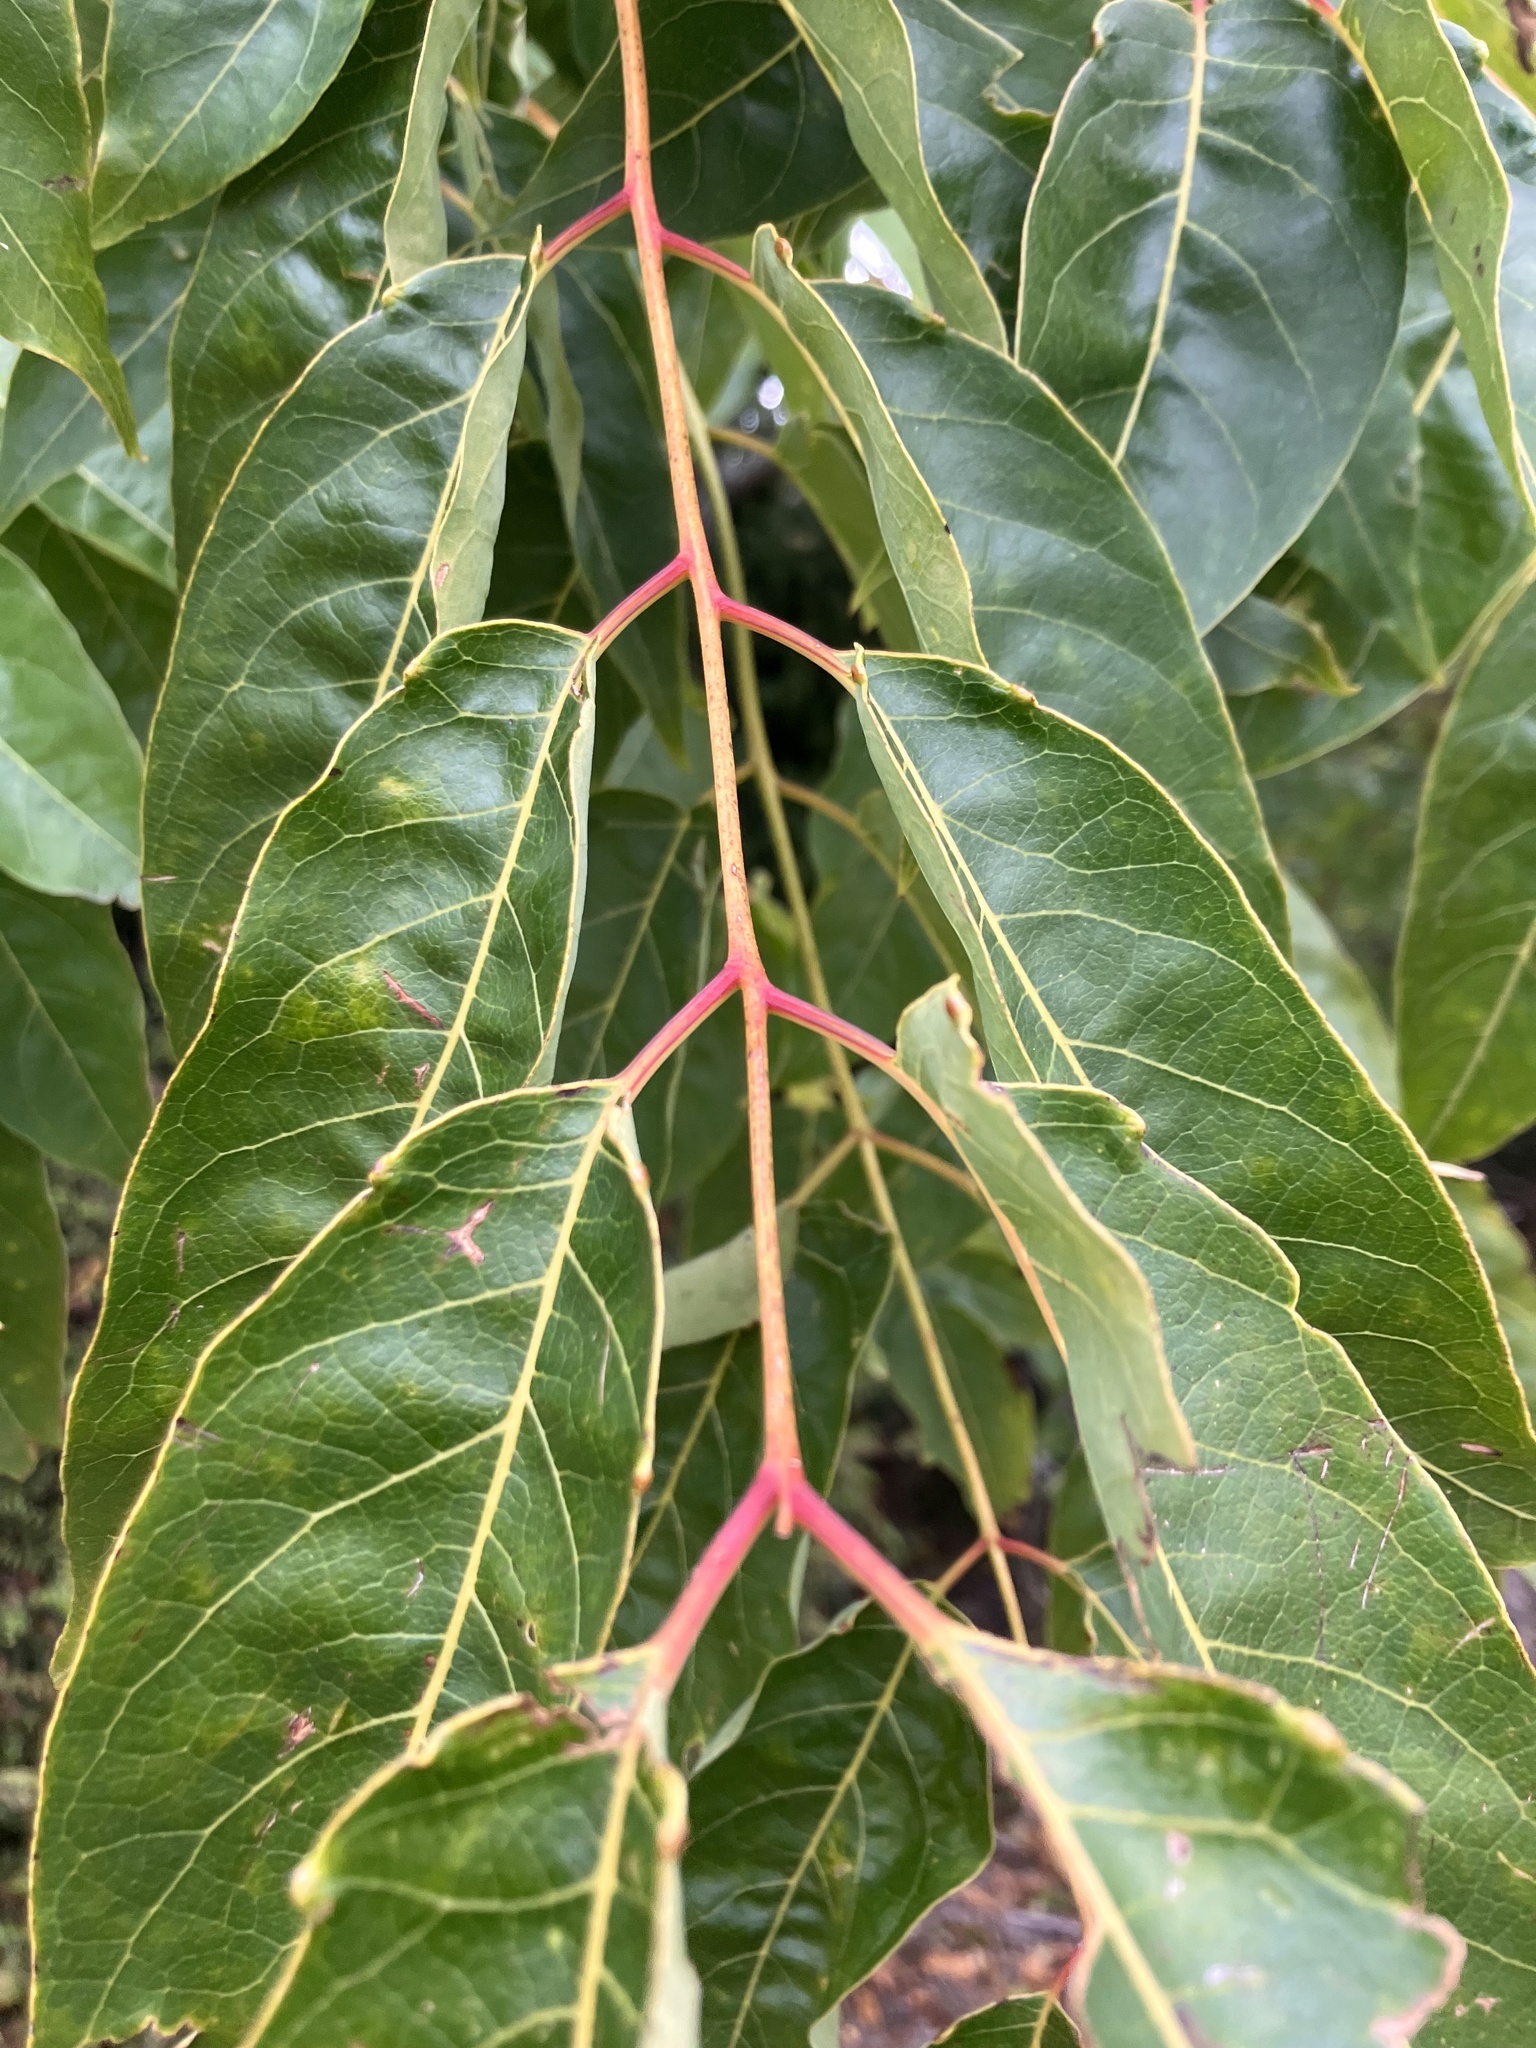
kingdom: Plantae
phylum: Tracheophyta
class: Magnoliopsida
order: Sapindales
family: Simaroubaceae
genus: Ailanthus
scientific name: Ailanthus altissima
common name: Tree-of-heaven
